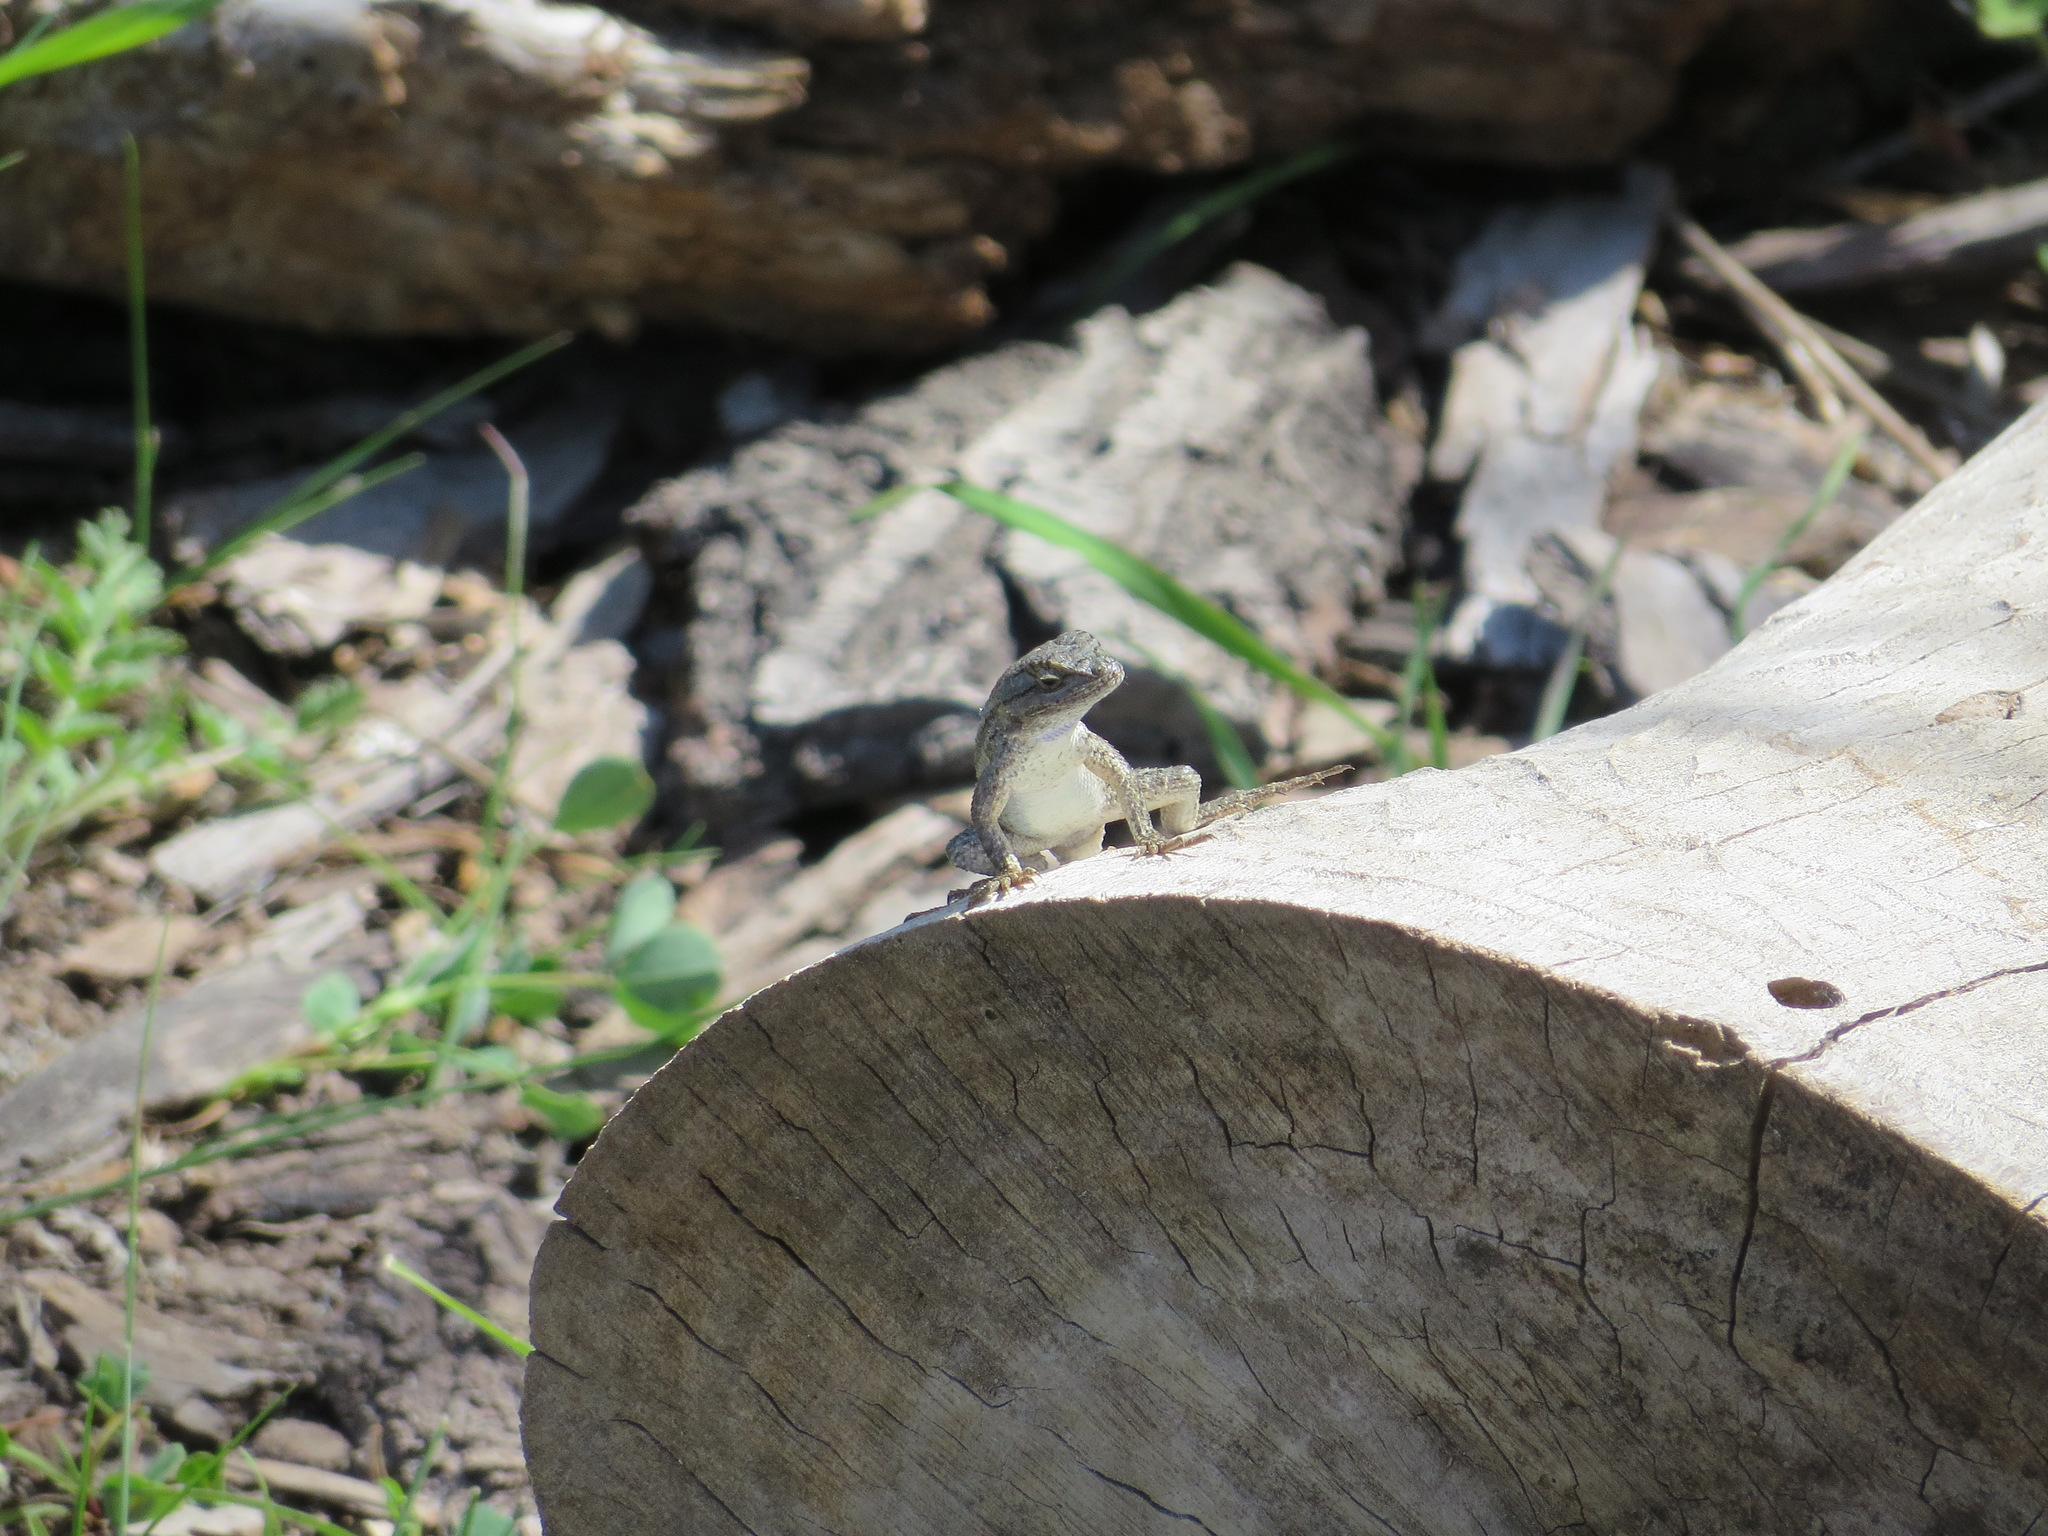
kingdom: Animalia
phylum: Chordata
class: Squamata
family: Phrynosomatidae
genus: Sceloporus
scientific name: Sceloporus occidentalis
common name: Western fence lizard
